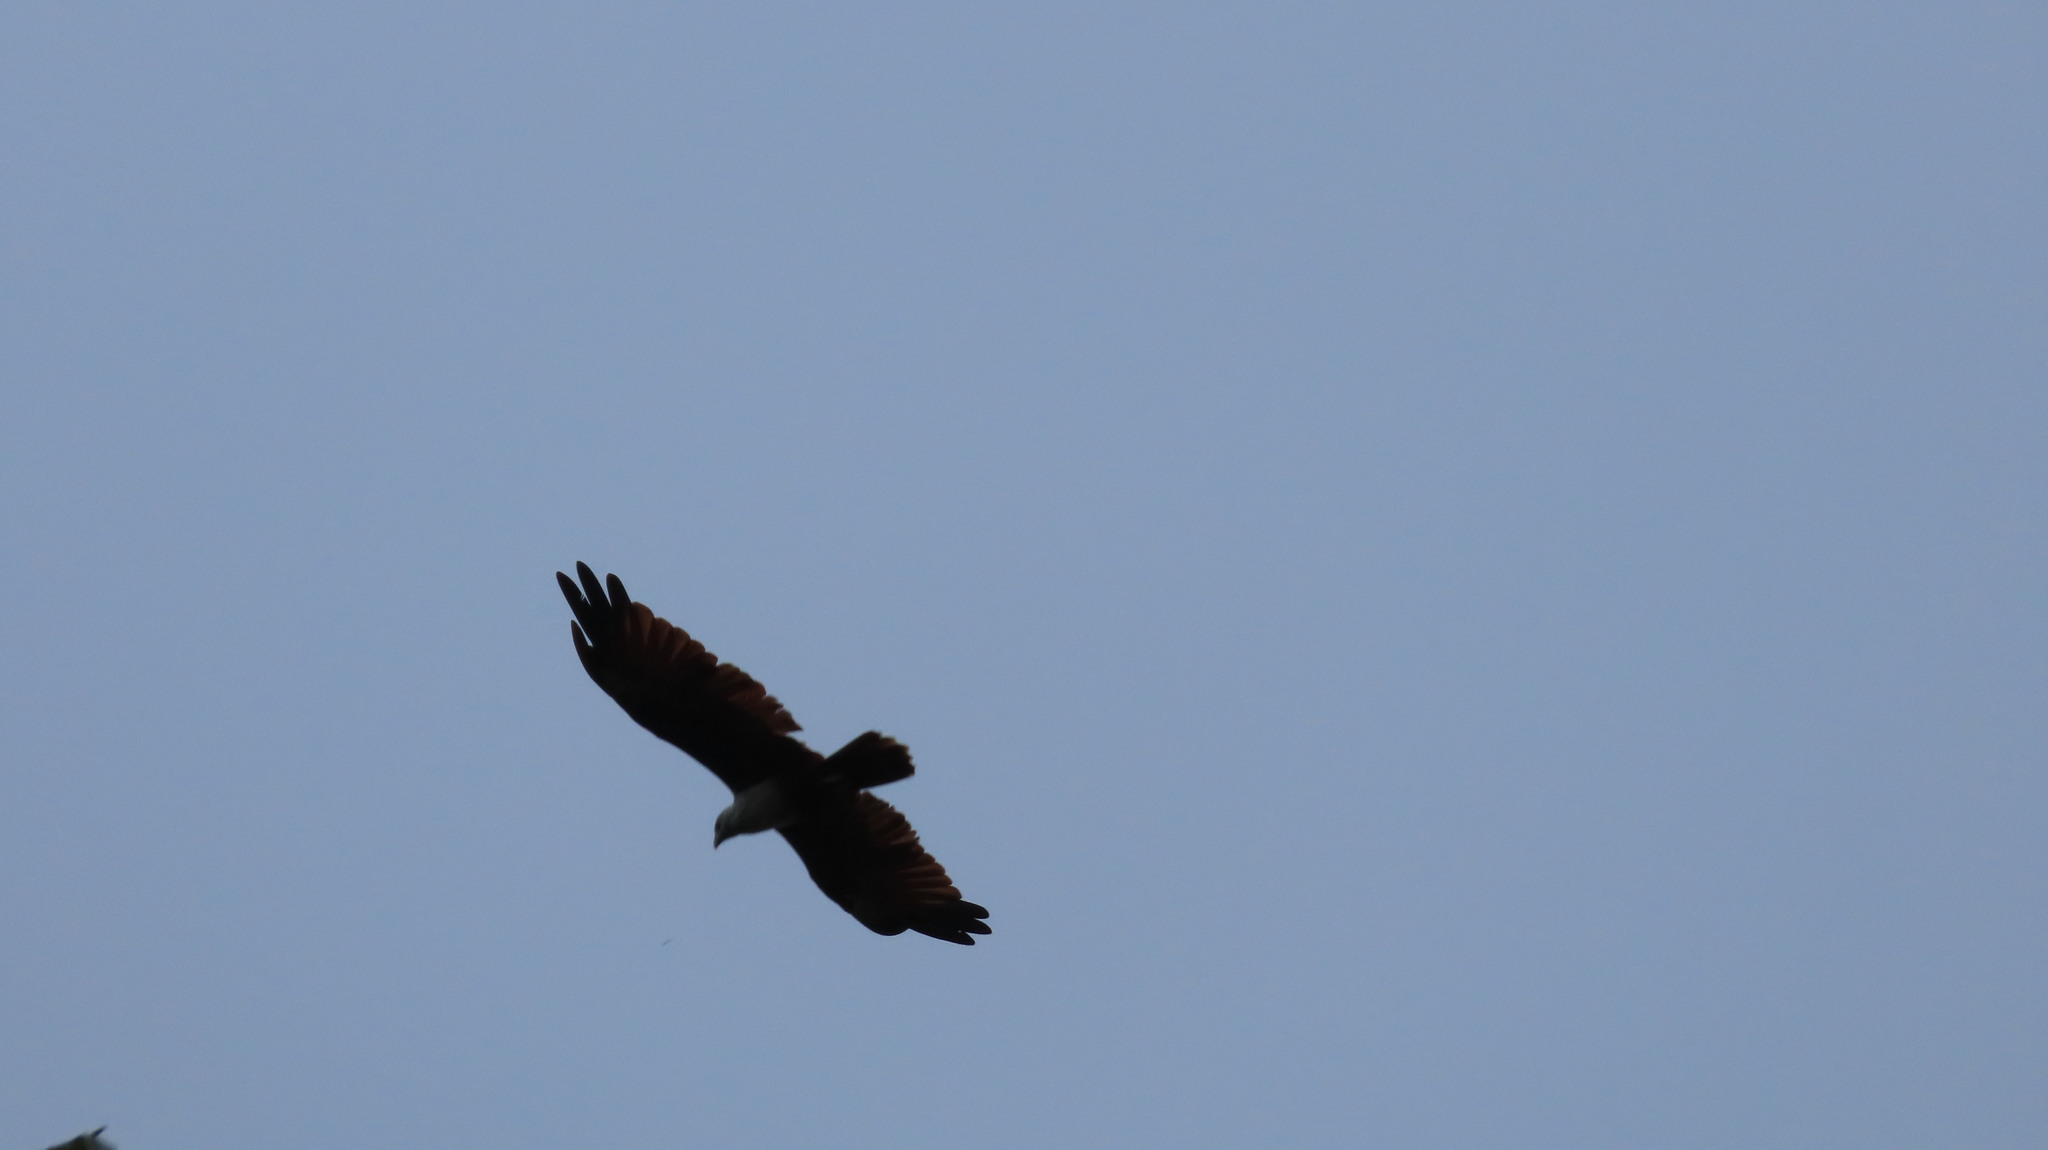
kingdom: Animalia
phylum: Chordata
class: Aves
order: Accipitriformes
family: Accipitridae
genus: Haliastur
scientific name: Haliastur indus
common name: Brahminy kite
